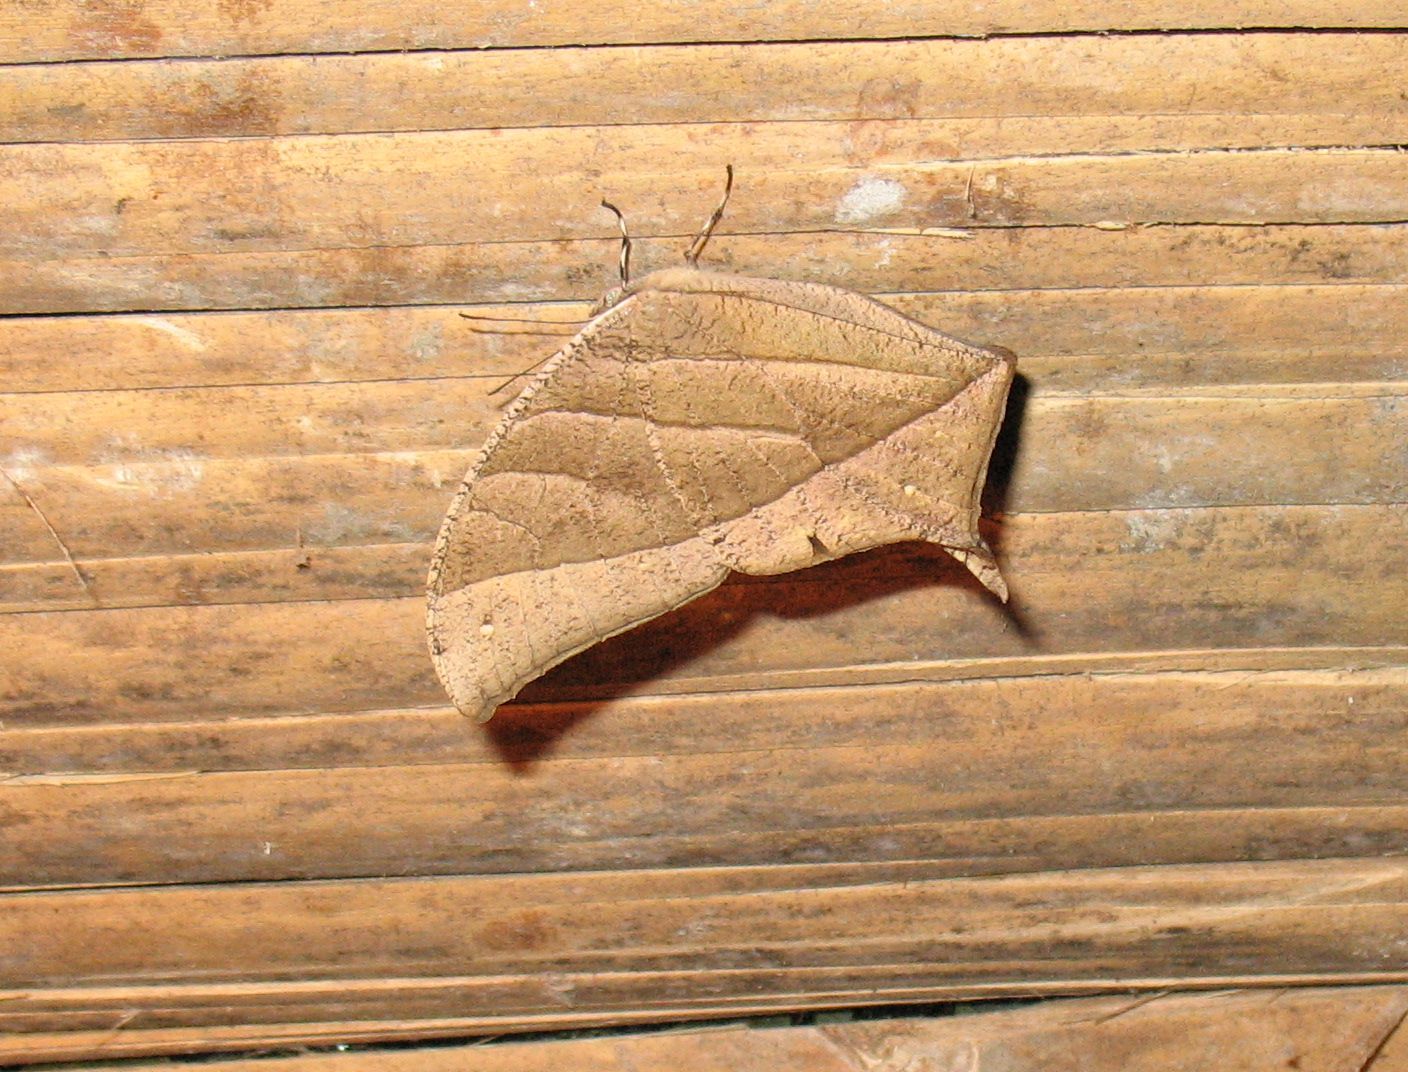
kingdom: Animalia
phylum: Arthropoda
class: Insecta
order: Lepidoptera
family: Nymphalidae
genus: Caerois
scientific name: Caerois gerdrudtus
